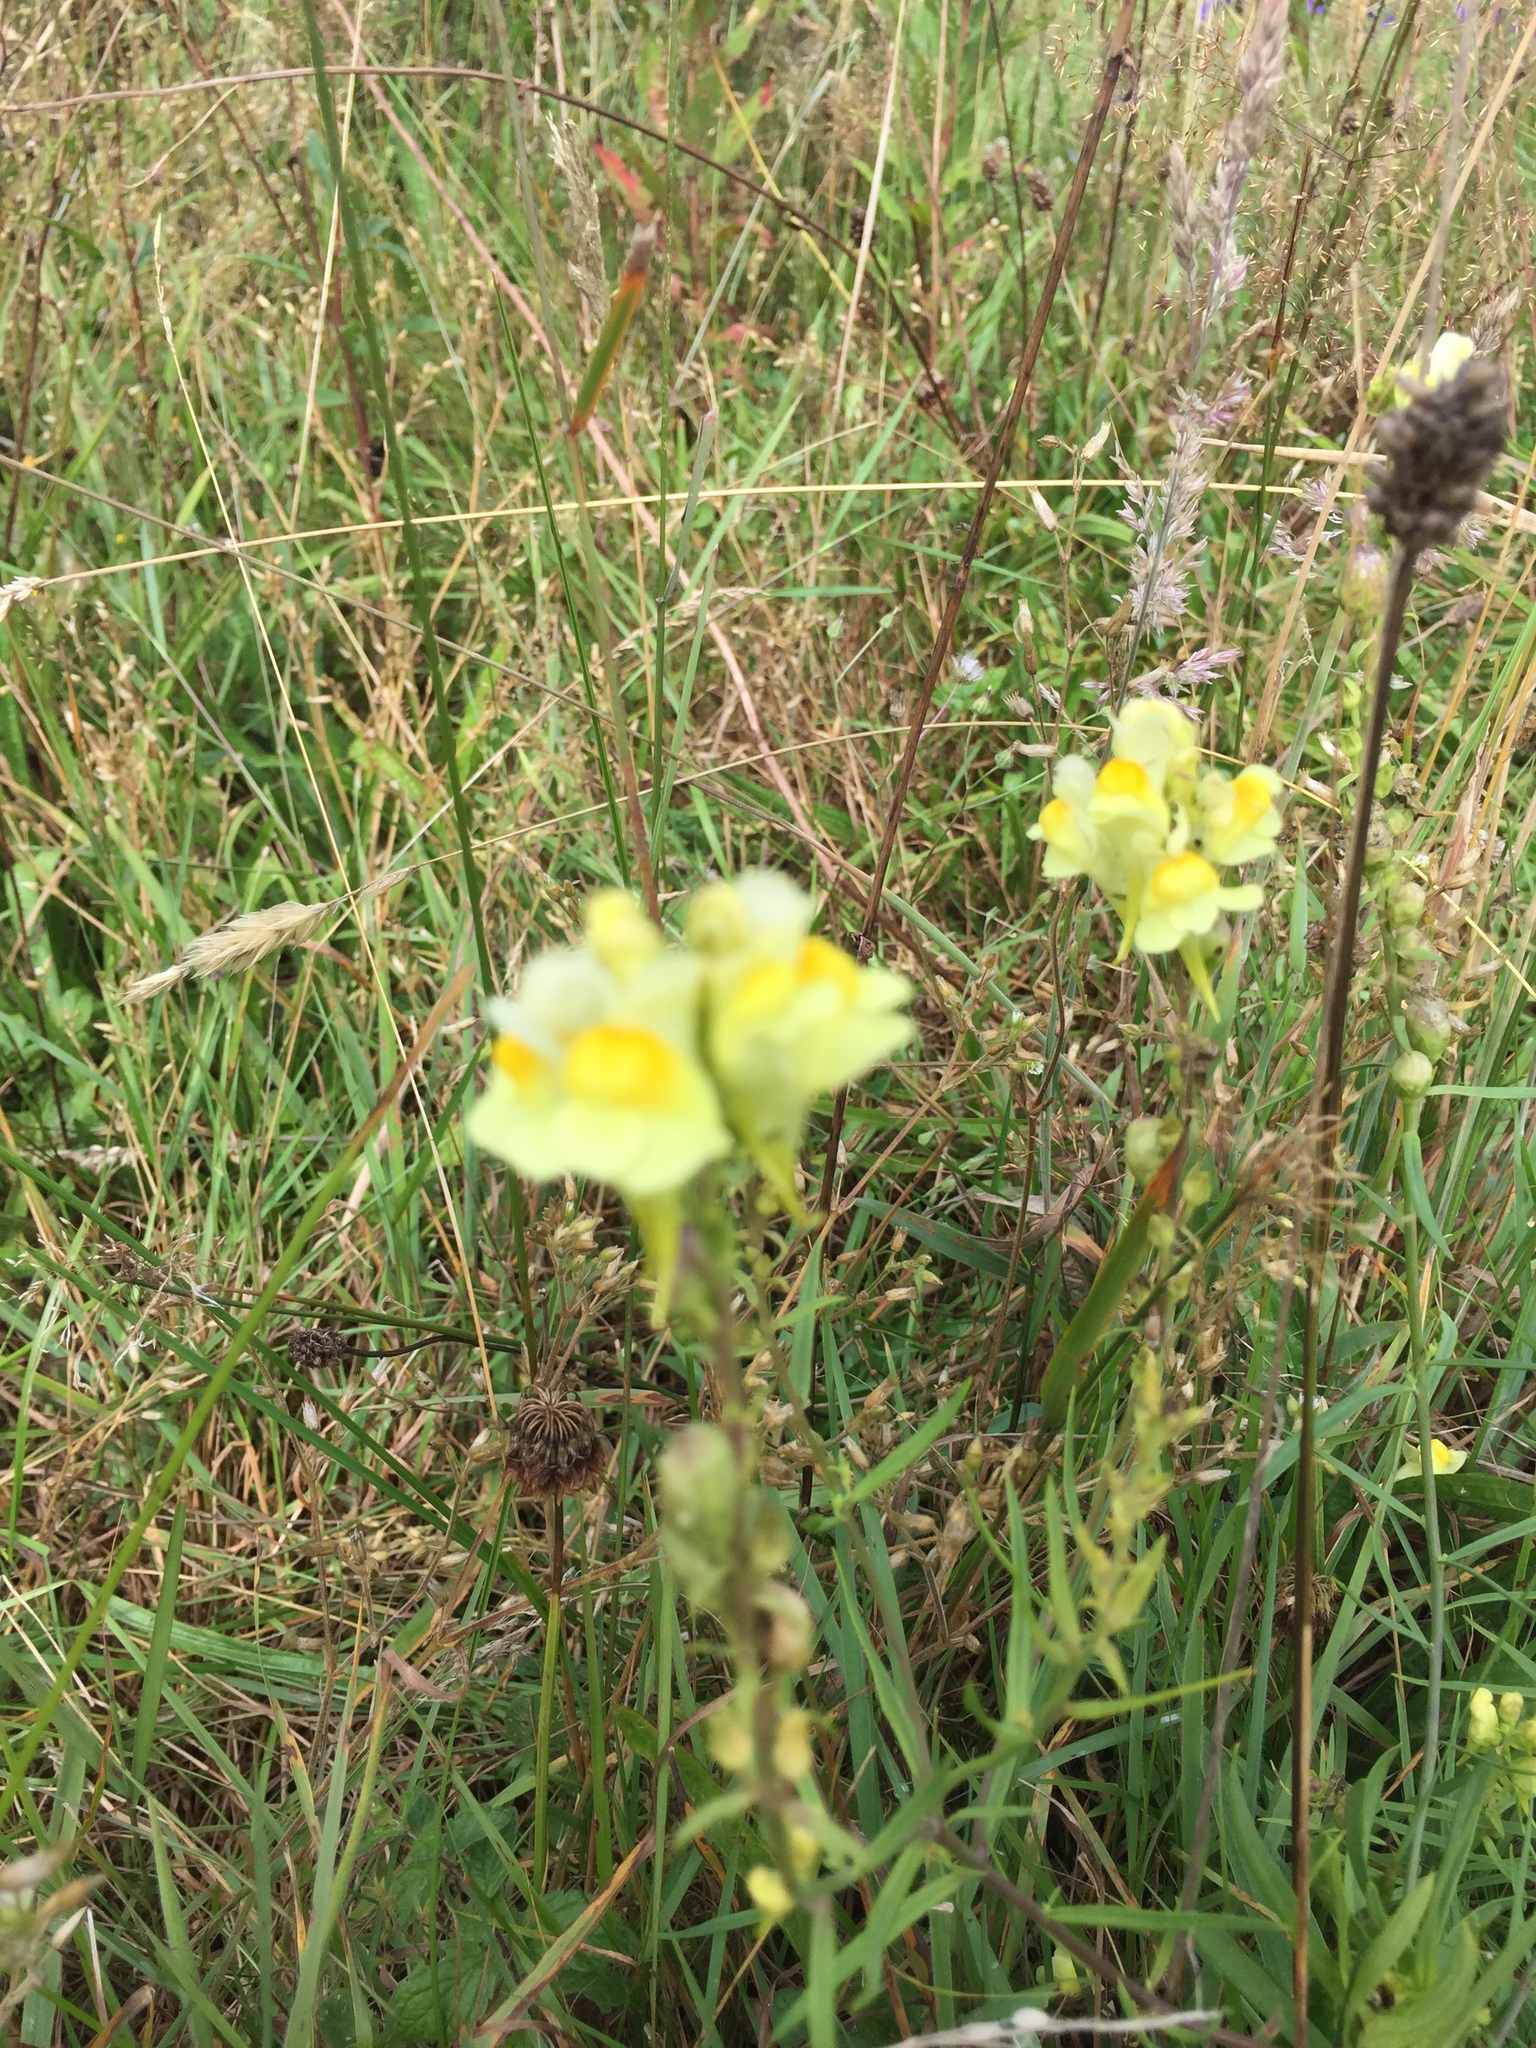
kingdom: Plantae
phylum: Tracheophyta
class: Magnoliopsida
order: Lamiales
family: Plantaginaceae
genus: Linaria
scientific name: Linaria vulgaris
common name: Butter and eggs
